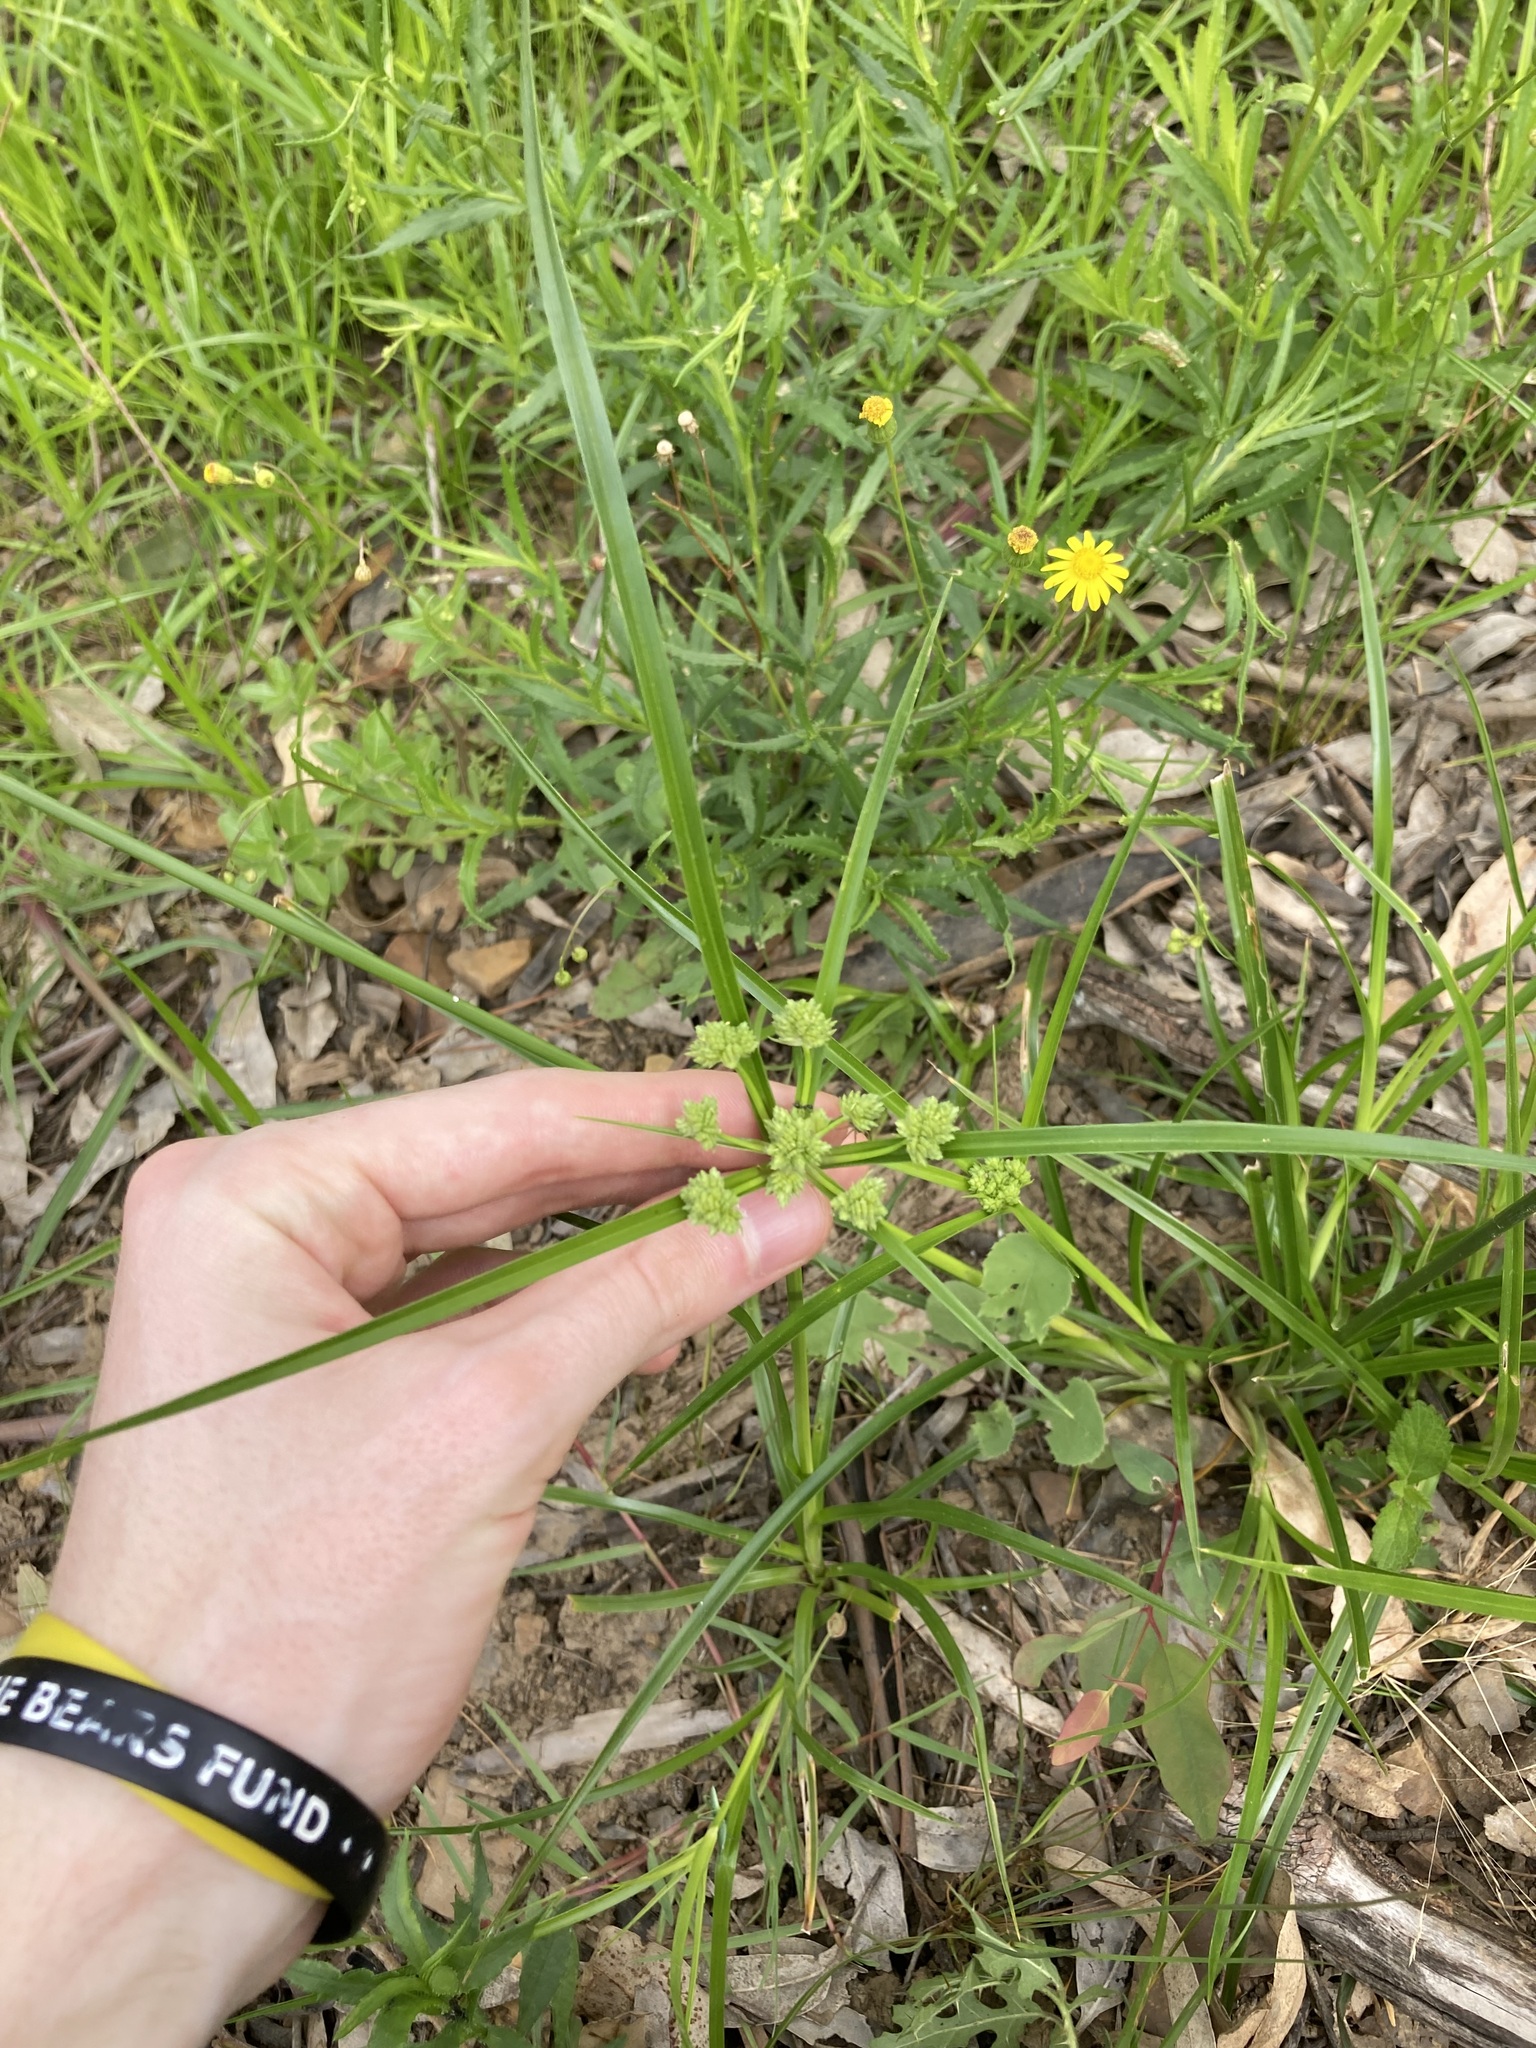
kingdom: Plantae
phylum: Tracheophyta
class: Liliopsida
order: Poales
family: Cyperaceae
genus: Cyperus
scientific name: Cyperus eragrostis
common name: Tall flatsedge
